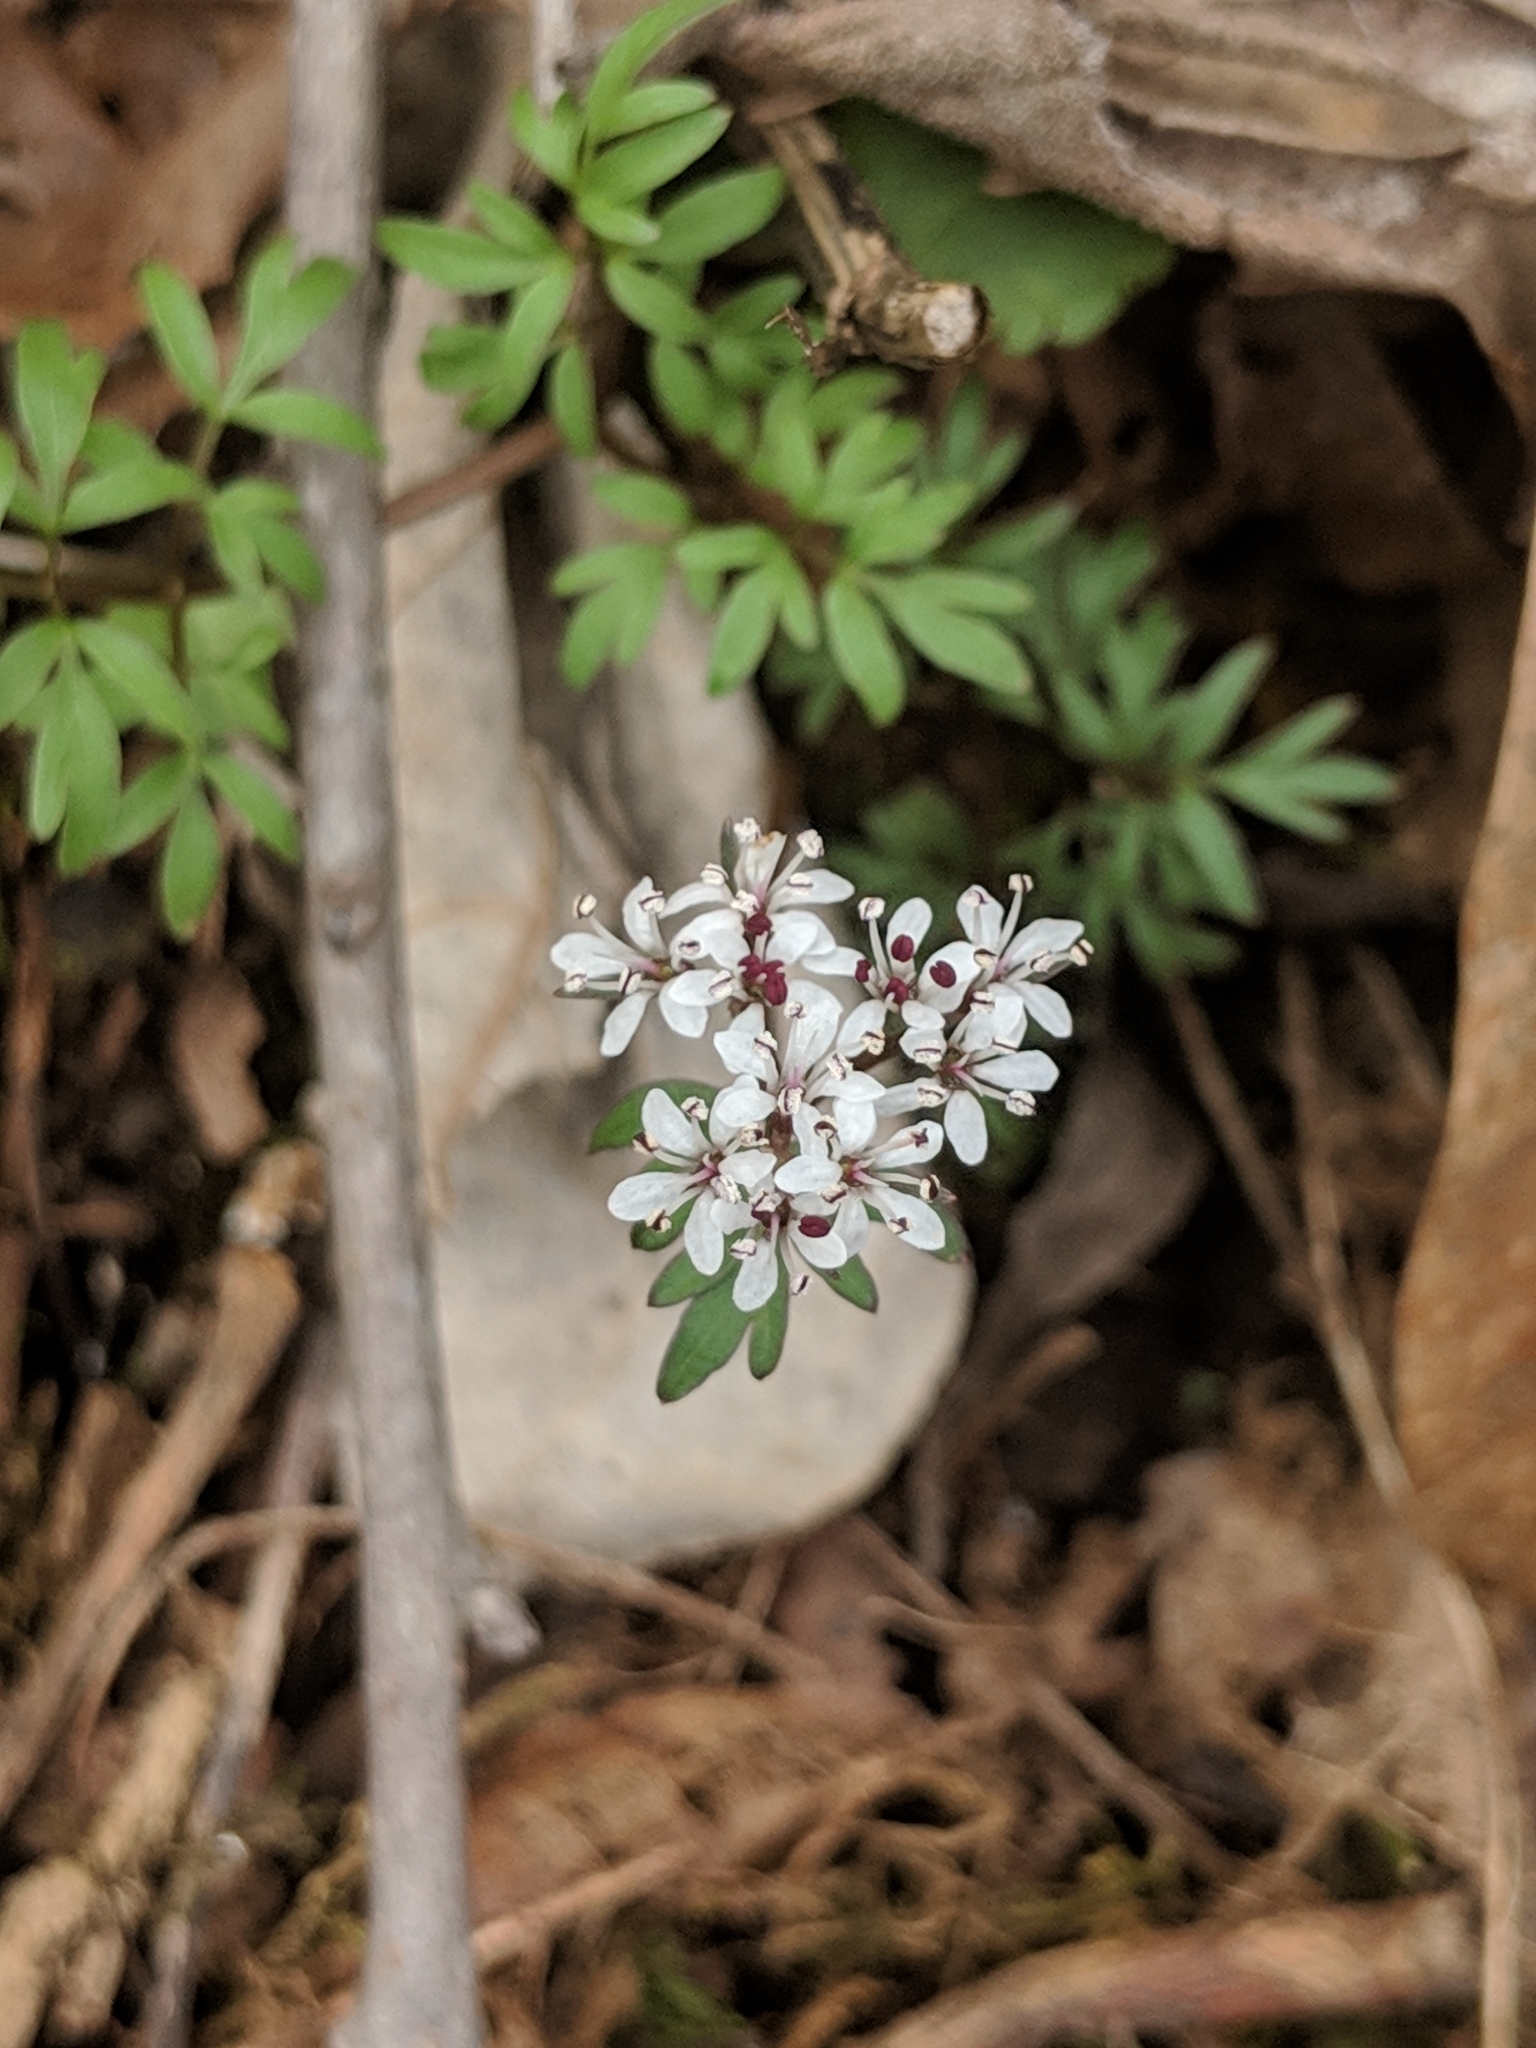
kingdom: Plantae
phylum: Tracheophyta
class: Magnoliopsida
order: Apiales
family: Apiaceae
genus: Erigenia
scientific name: Erigenia bulbosa
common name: Pepper-and-salt
